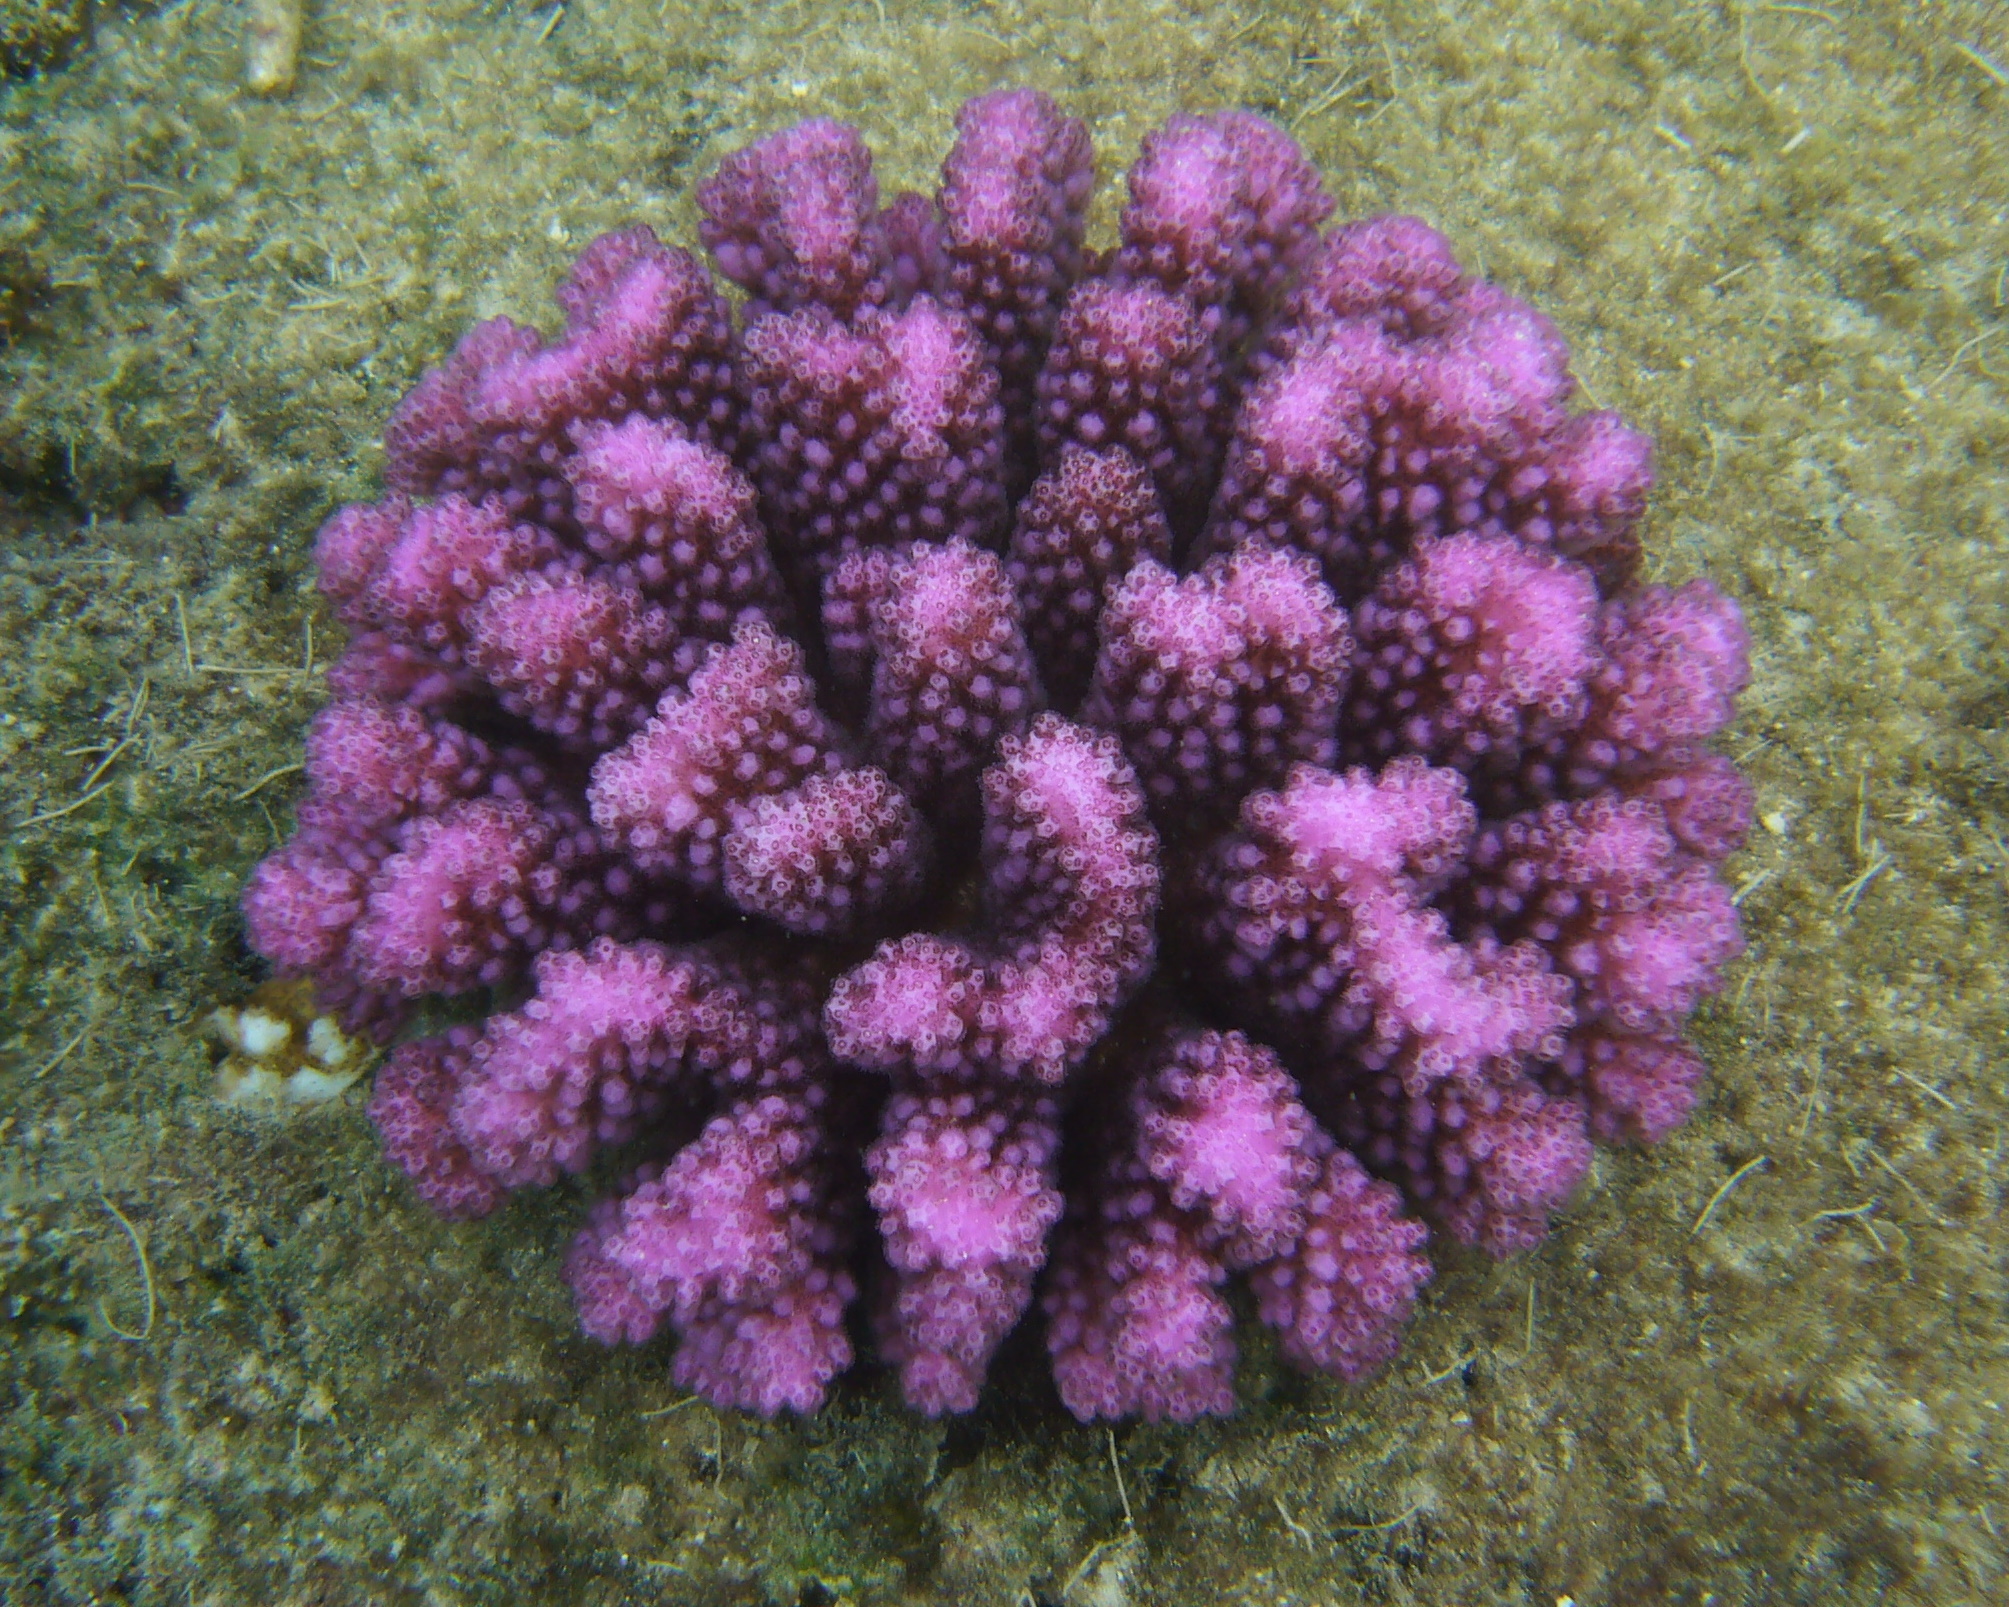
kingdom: Animalia
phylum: Cnidaria
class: Anthozoa
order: Scleractinia
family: Pocilloporidae
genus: Pocillopora
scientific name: Pocillopora verrucosa
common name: Cauliflower coral
